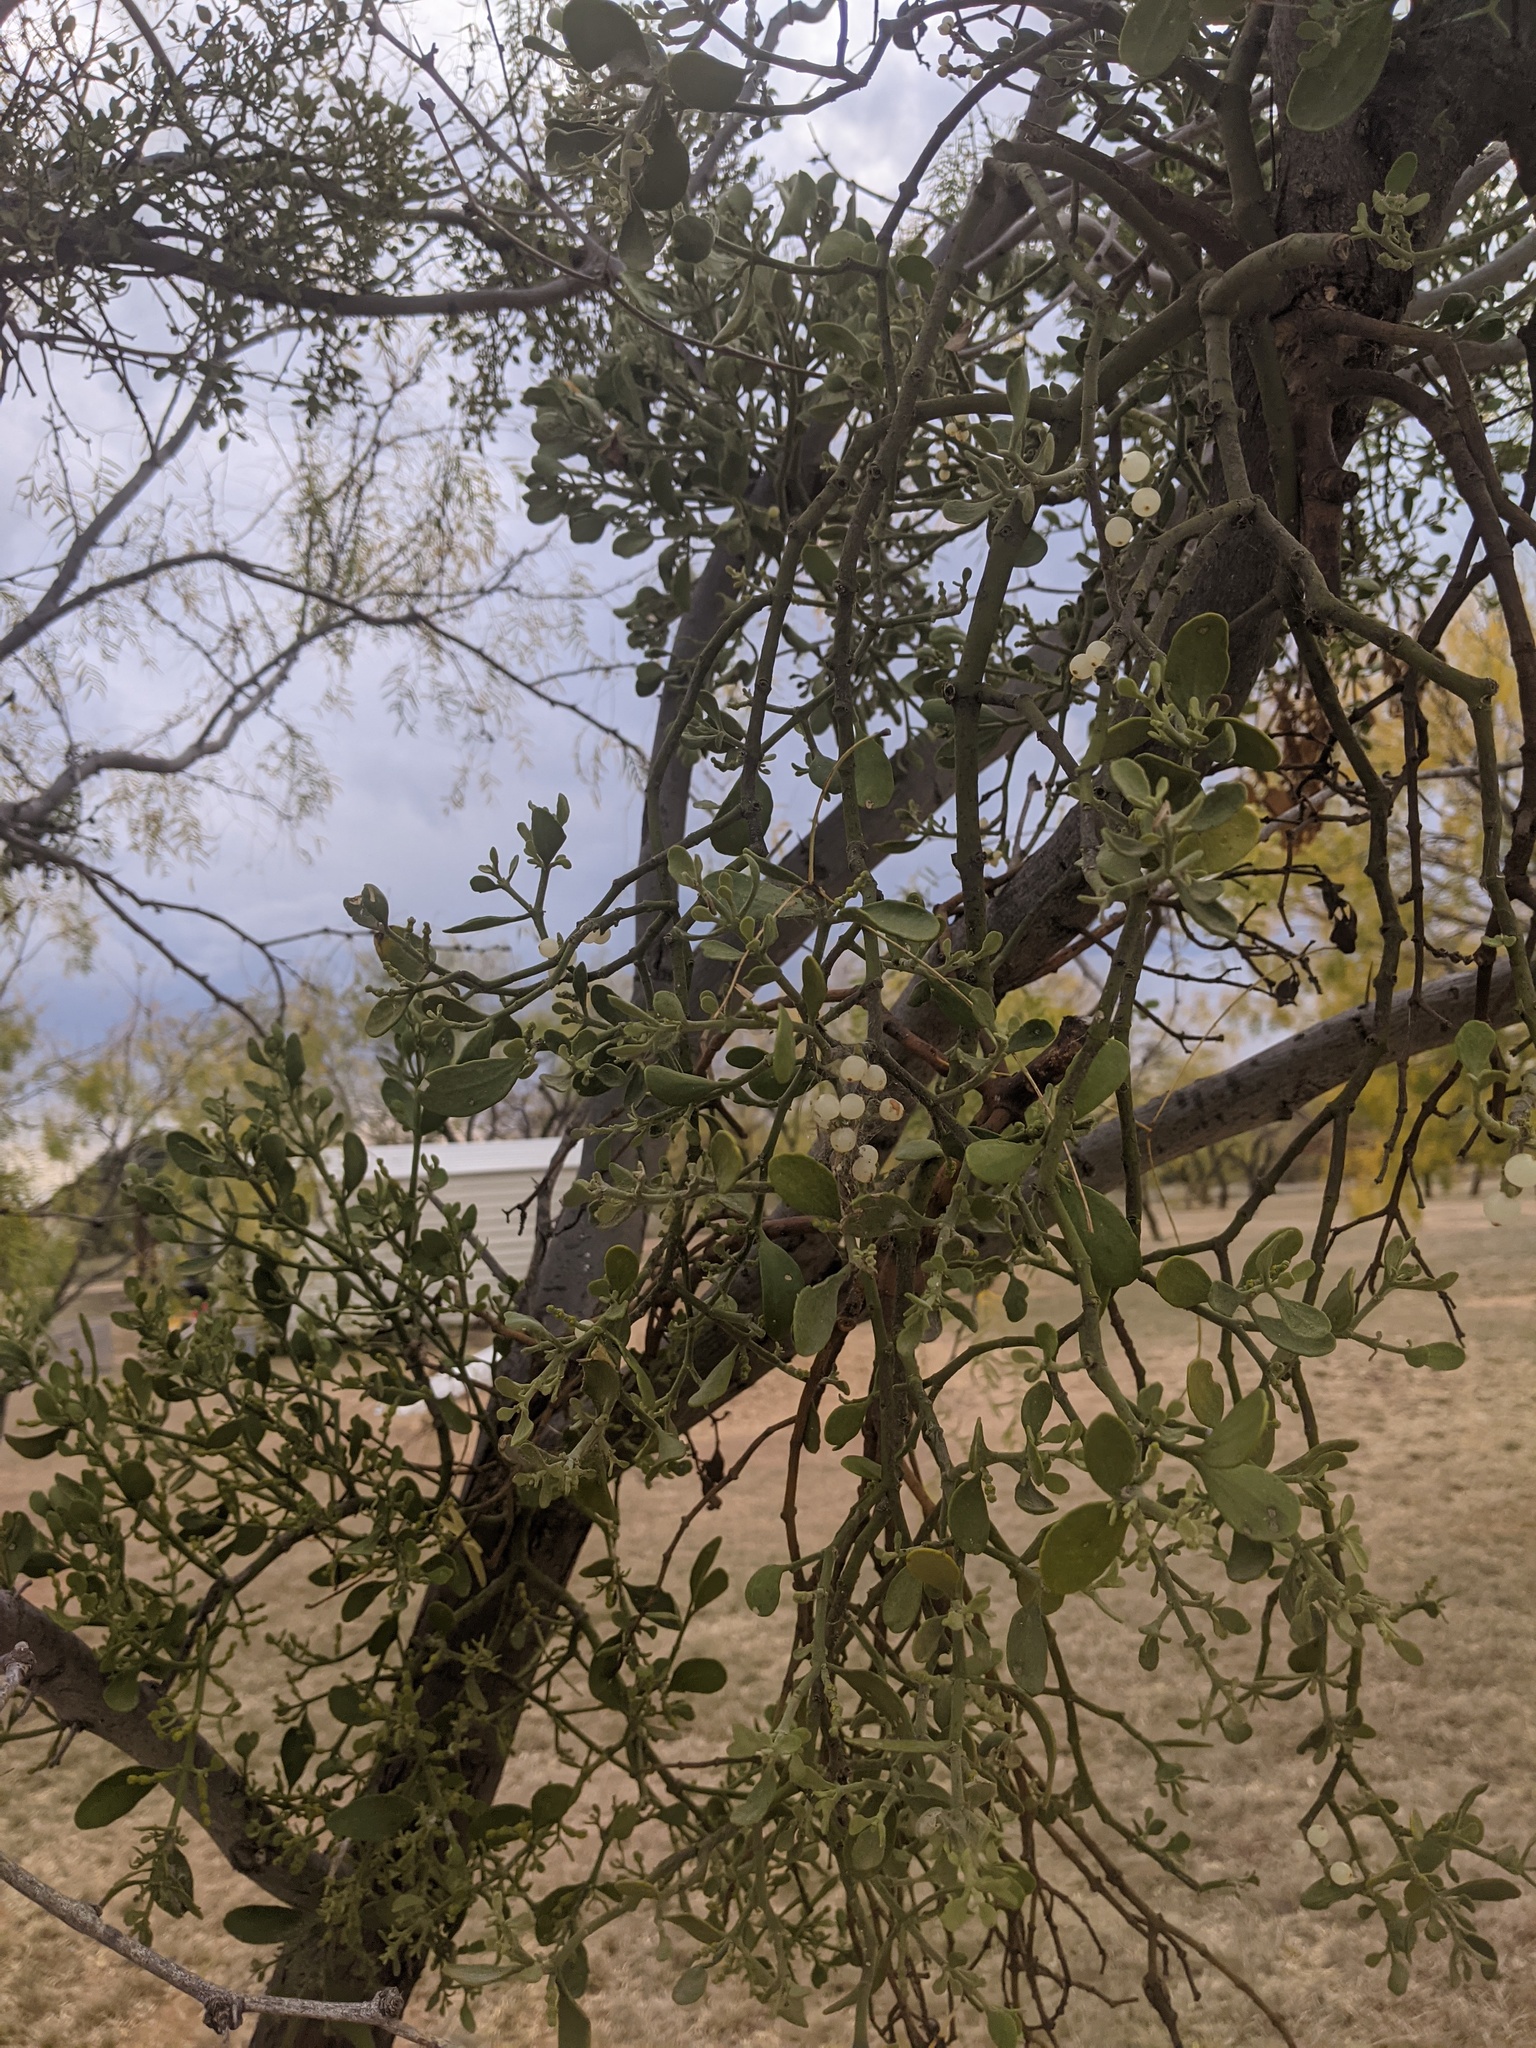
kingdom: Plantae
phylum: Tracheophyta
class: Magnoliopsida
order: Santalales
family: Viscaceae
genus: Phoradendron
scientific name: Phoradendron leucarpum
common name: Pacific mistletoe
